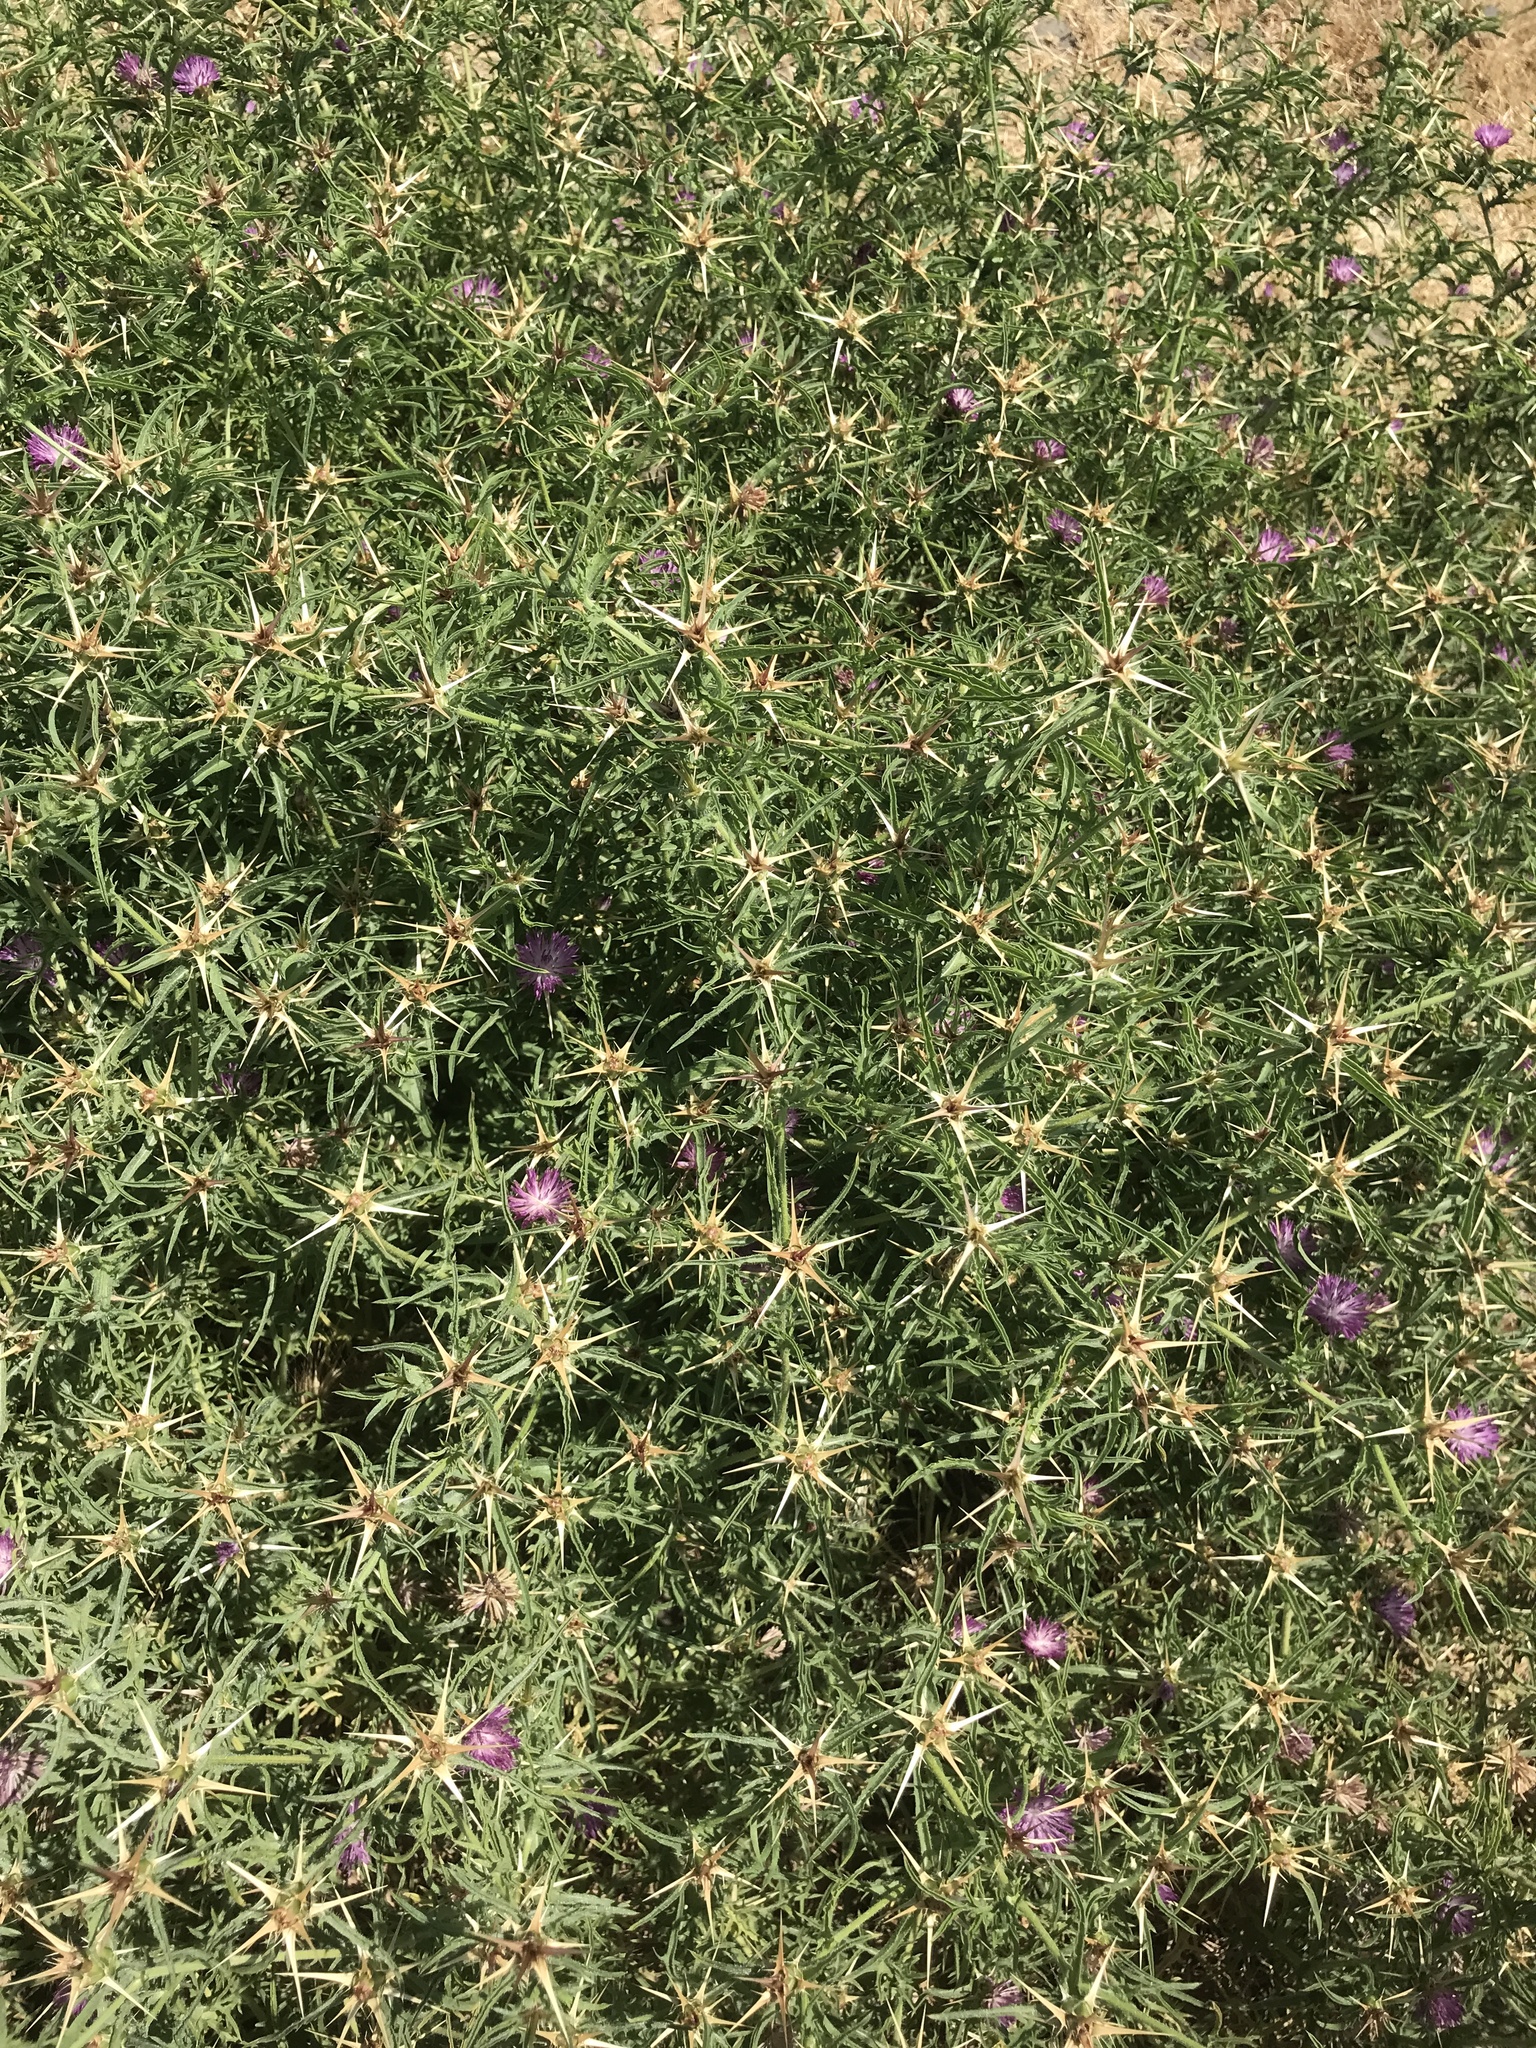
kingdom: Plantae
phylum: Tracheophyta
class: Magnoliopsida
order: Asterales
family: Asteraceae
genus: Centaurea
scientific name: Centaurea calcitrapa
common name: Red star-thistle
